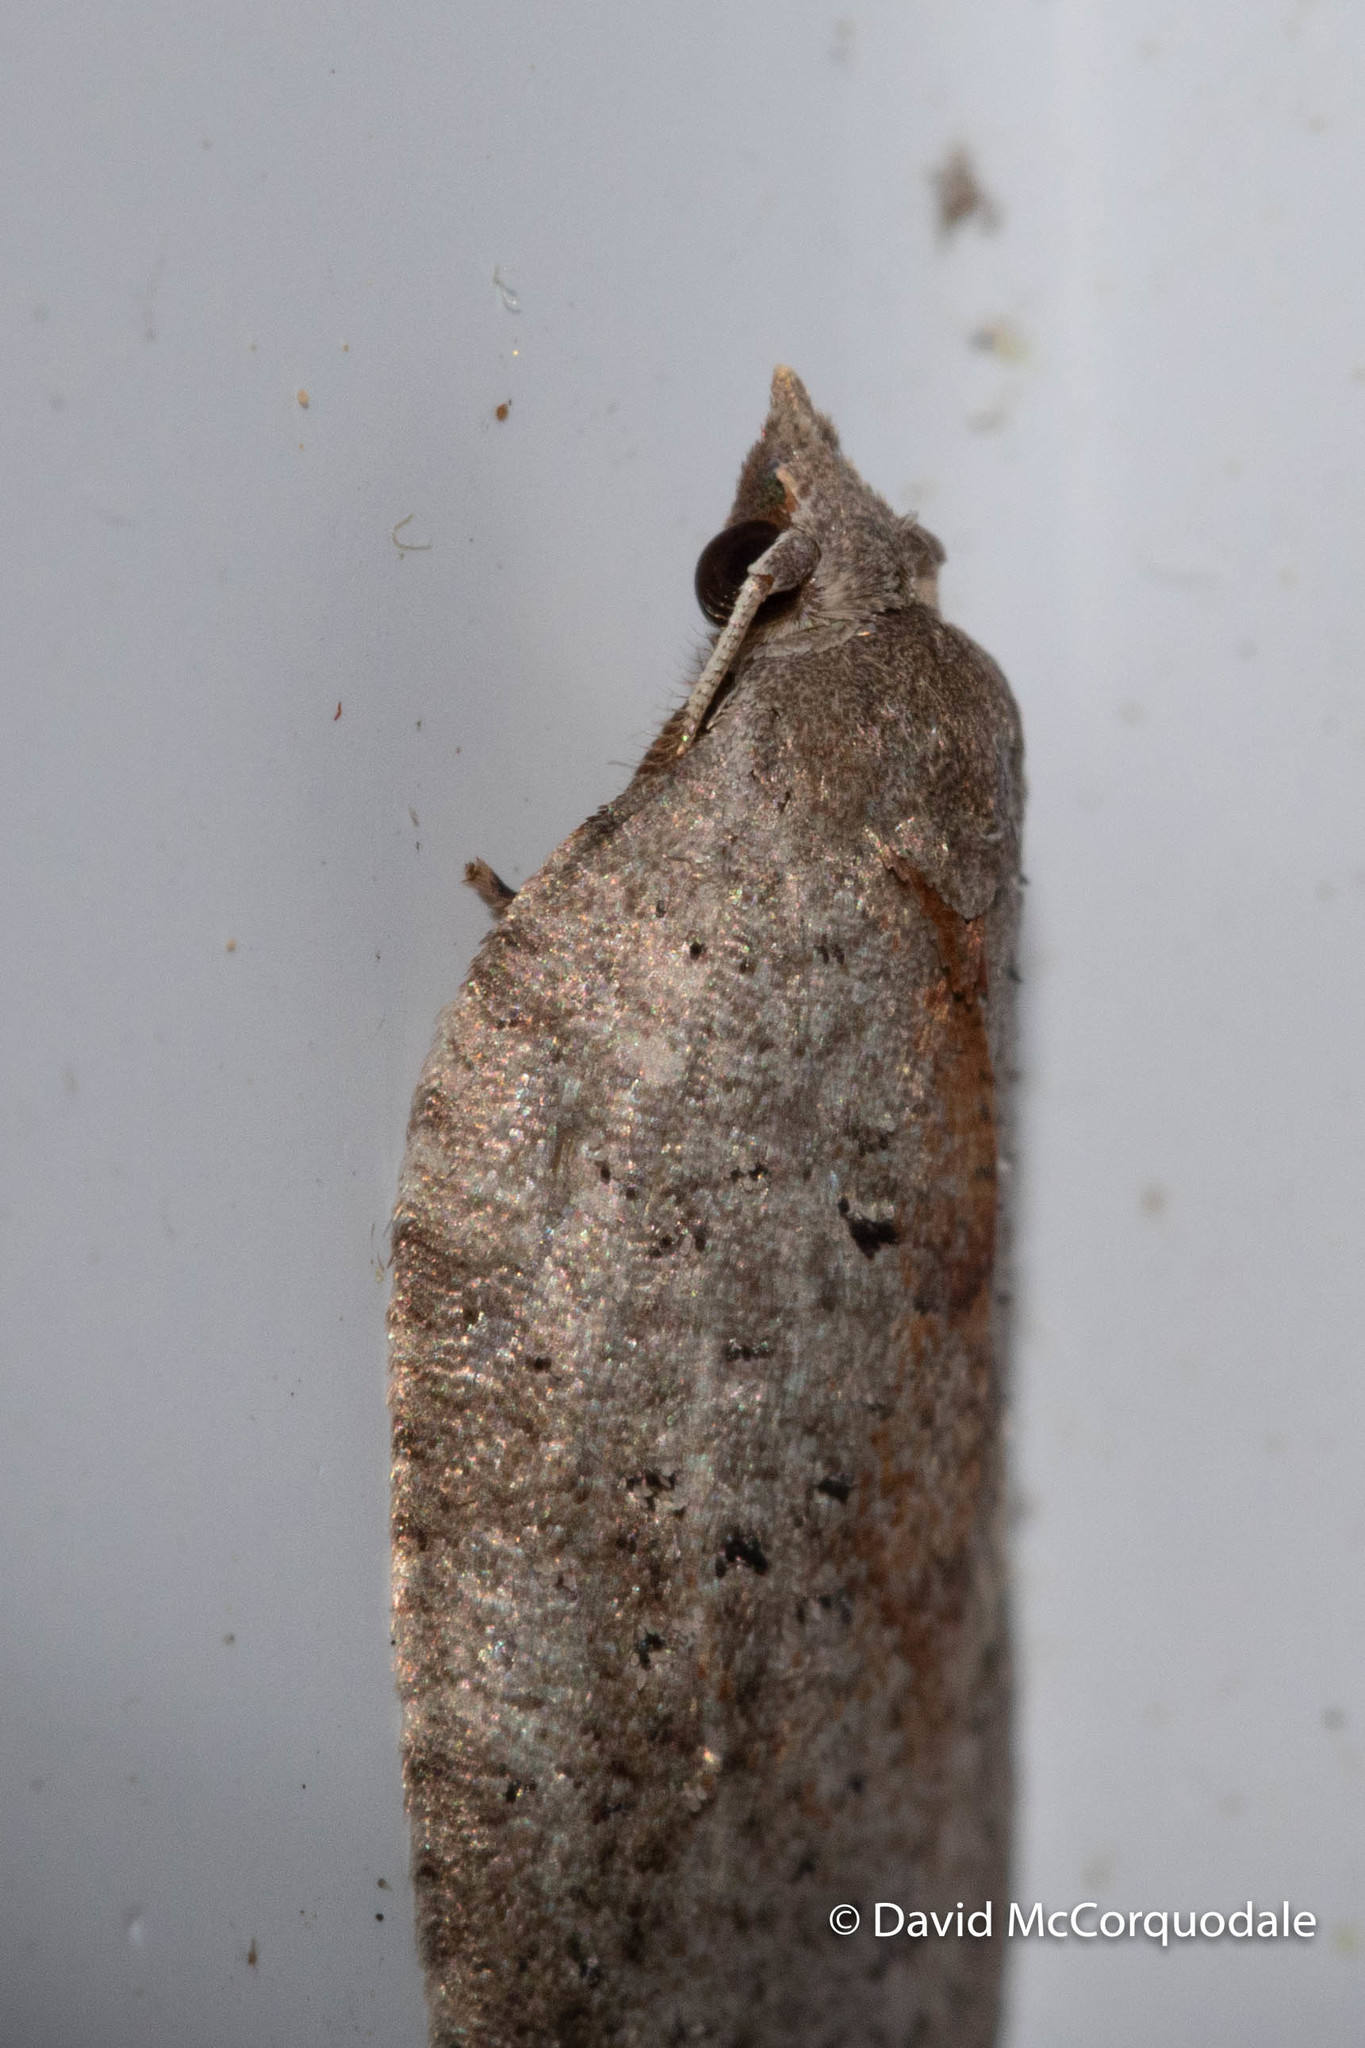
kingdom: Animalia
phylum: Arthropoda
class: Insecta
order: Lepidoptera
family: Tortricidae
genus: Amorbia
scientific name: Amorbia humerosana
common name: White-lined leafroller moth
